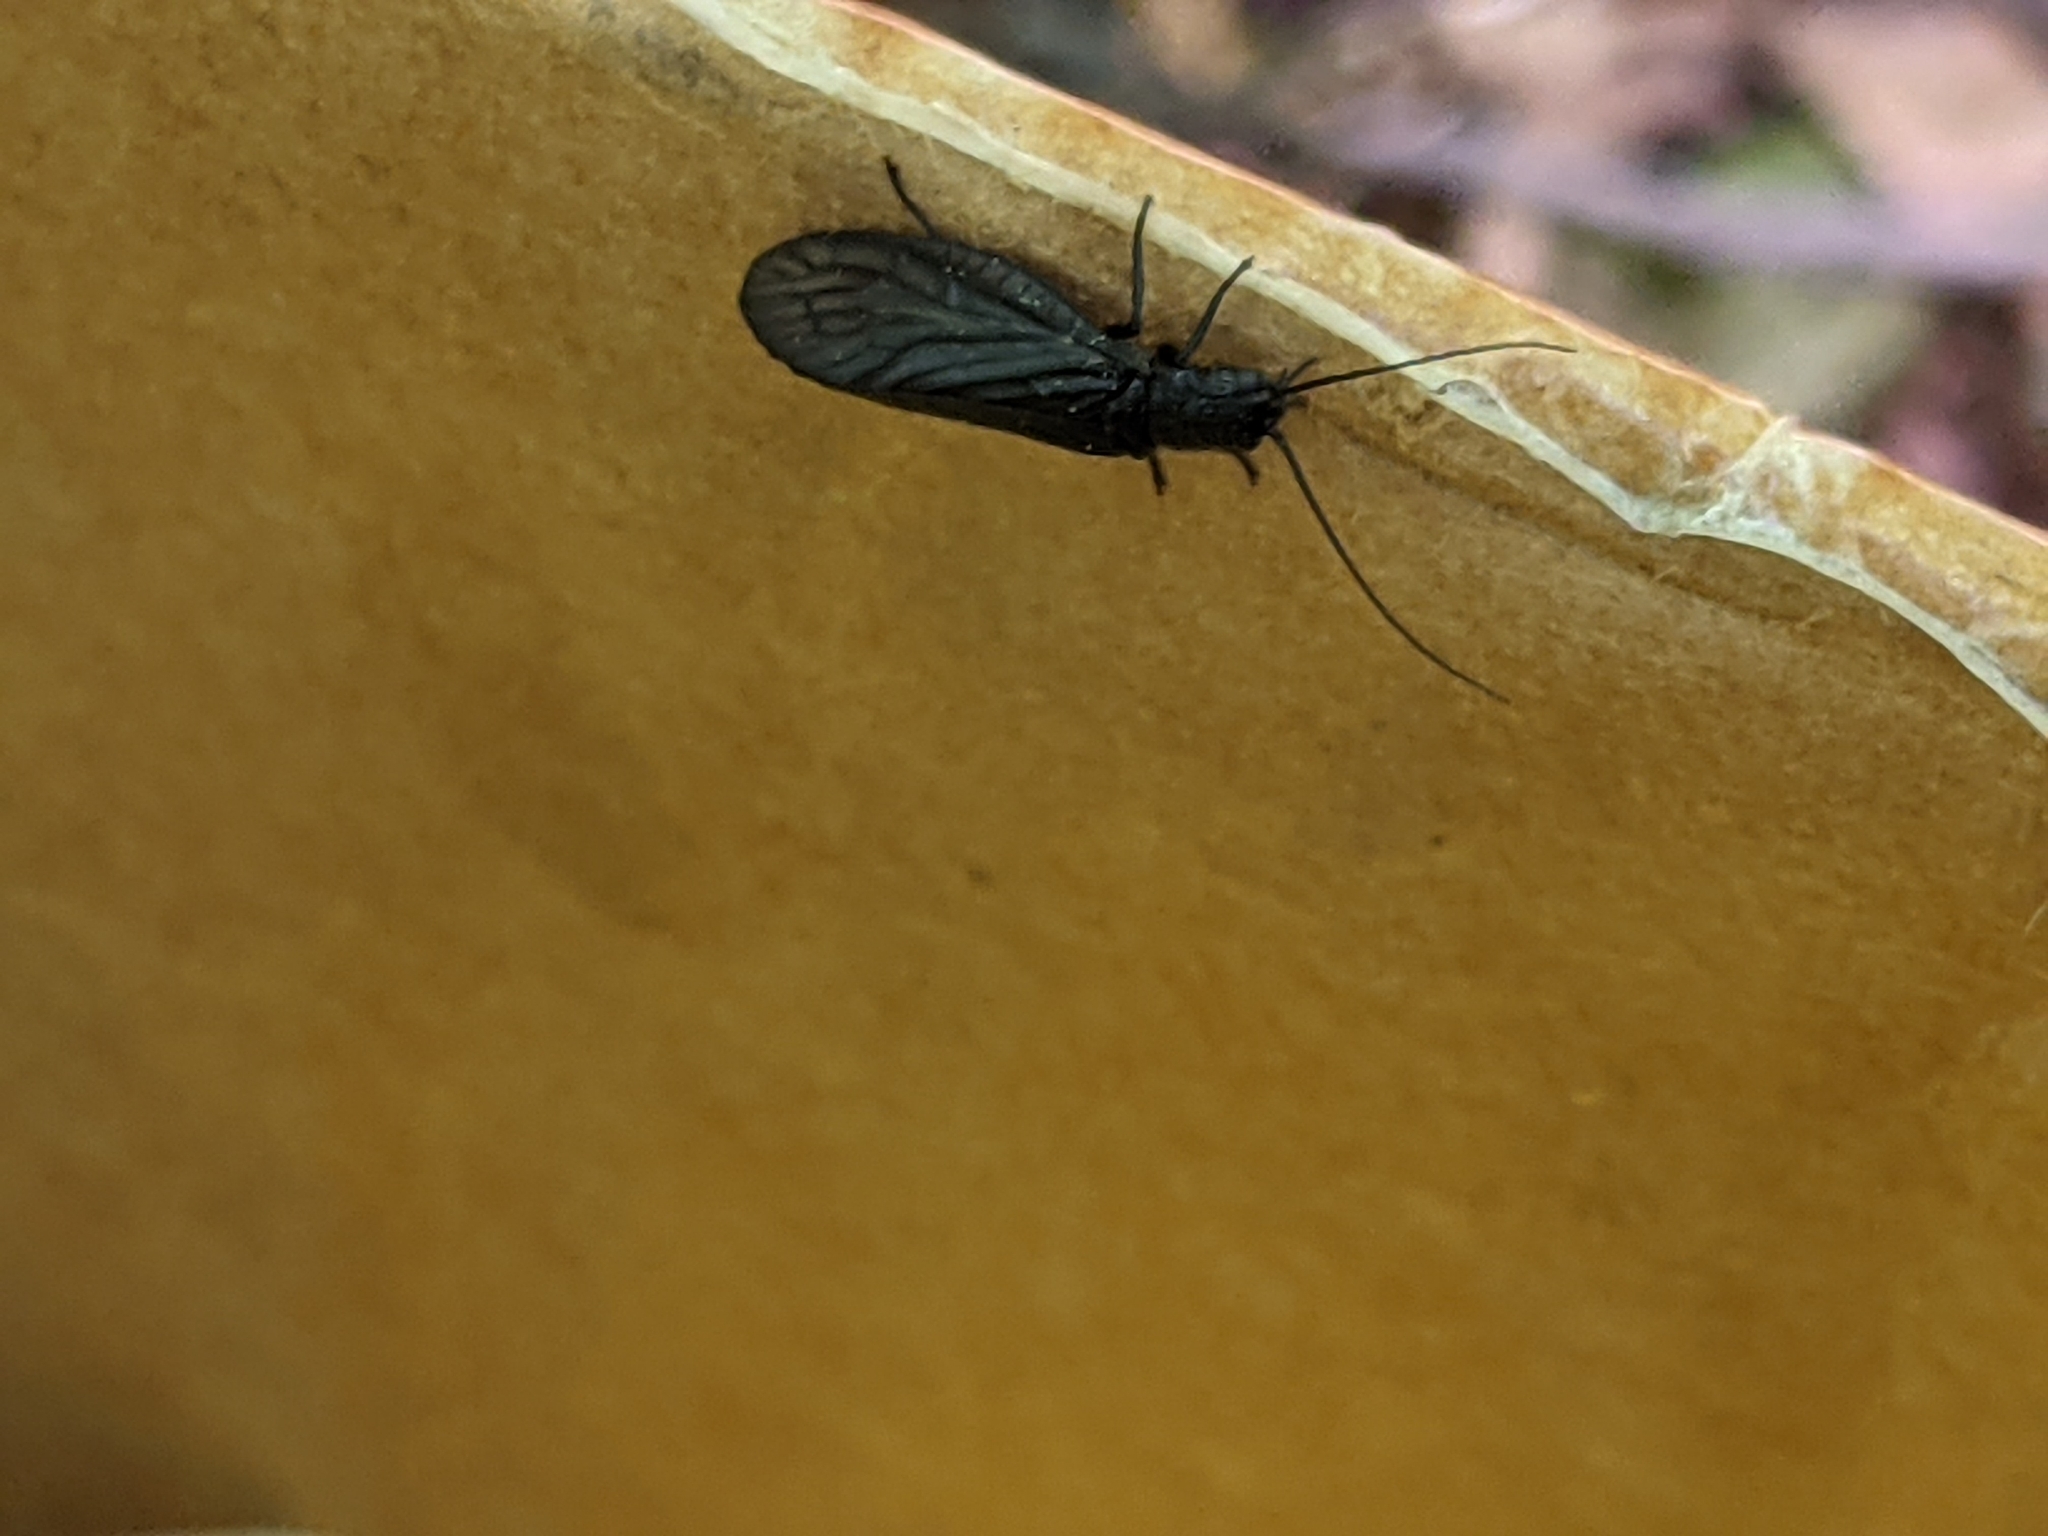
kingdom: Animalia
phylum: Arthropoda
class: Insecta
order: Megaloptera
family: Sialidae
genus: Sialis
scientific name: Sialis
